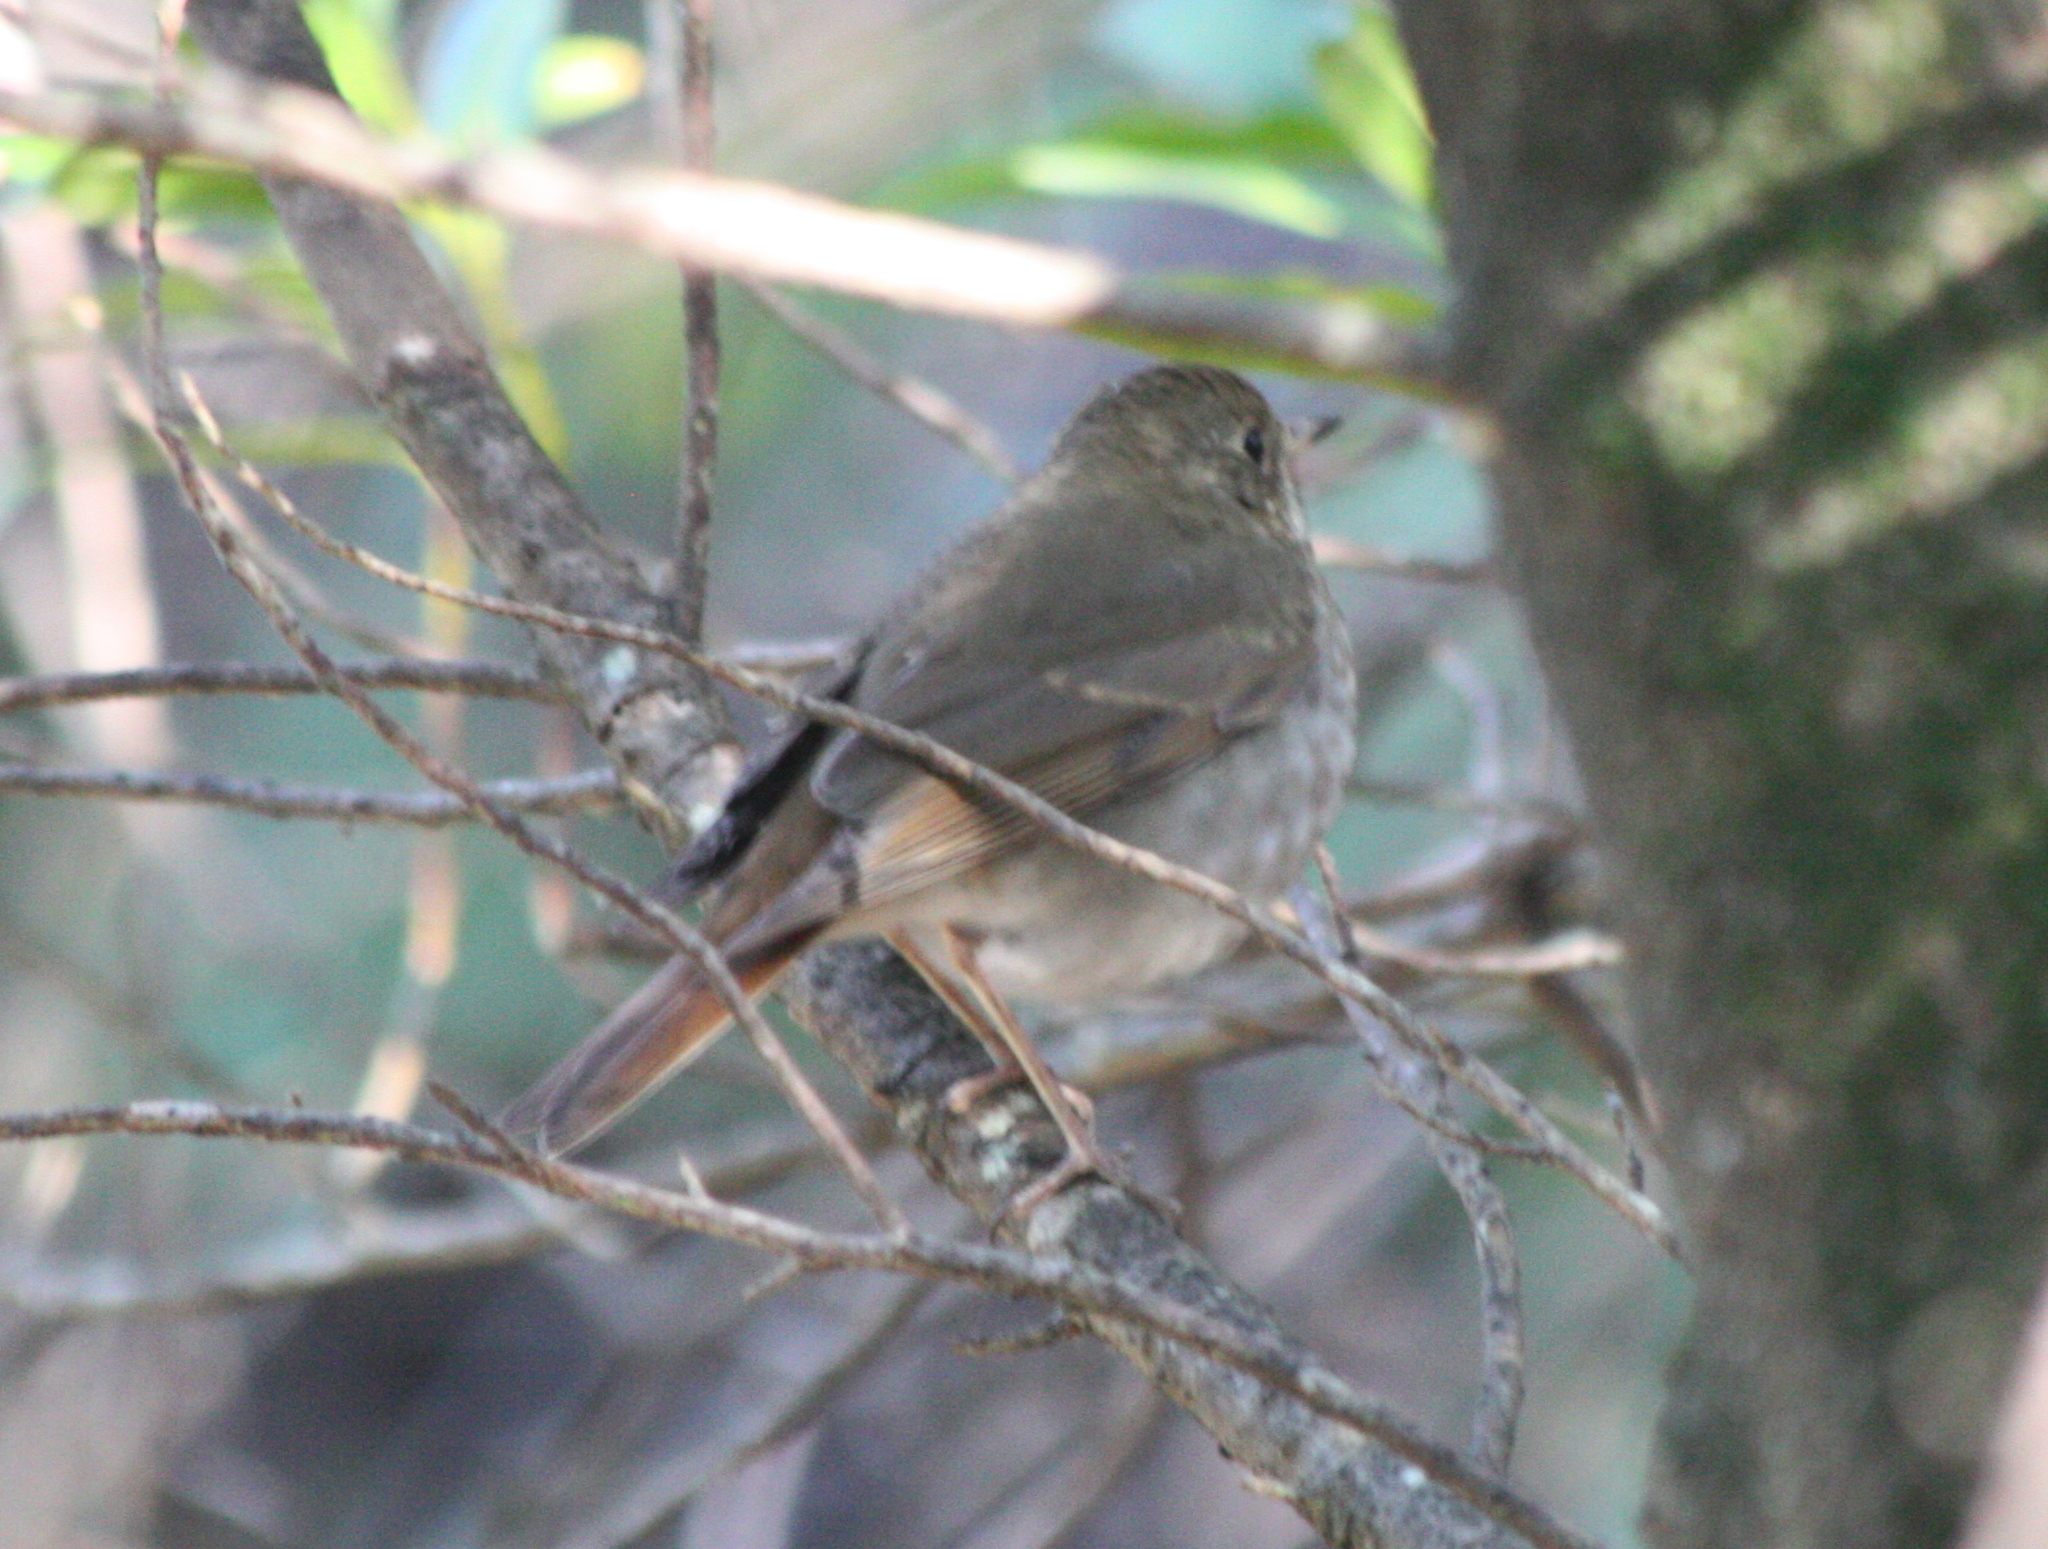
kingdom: Animalia
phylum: Chordata
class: Aves
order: Passeriformes
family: Turdidae
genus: Catharus
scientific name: Catharus guttatus
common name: Hermit thrush
